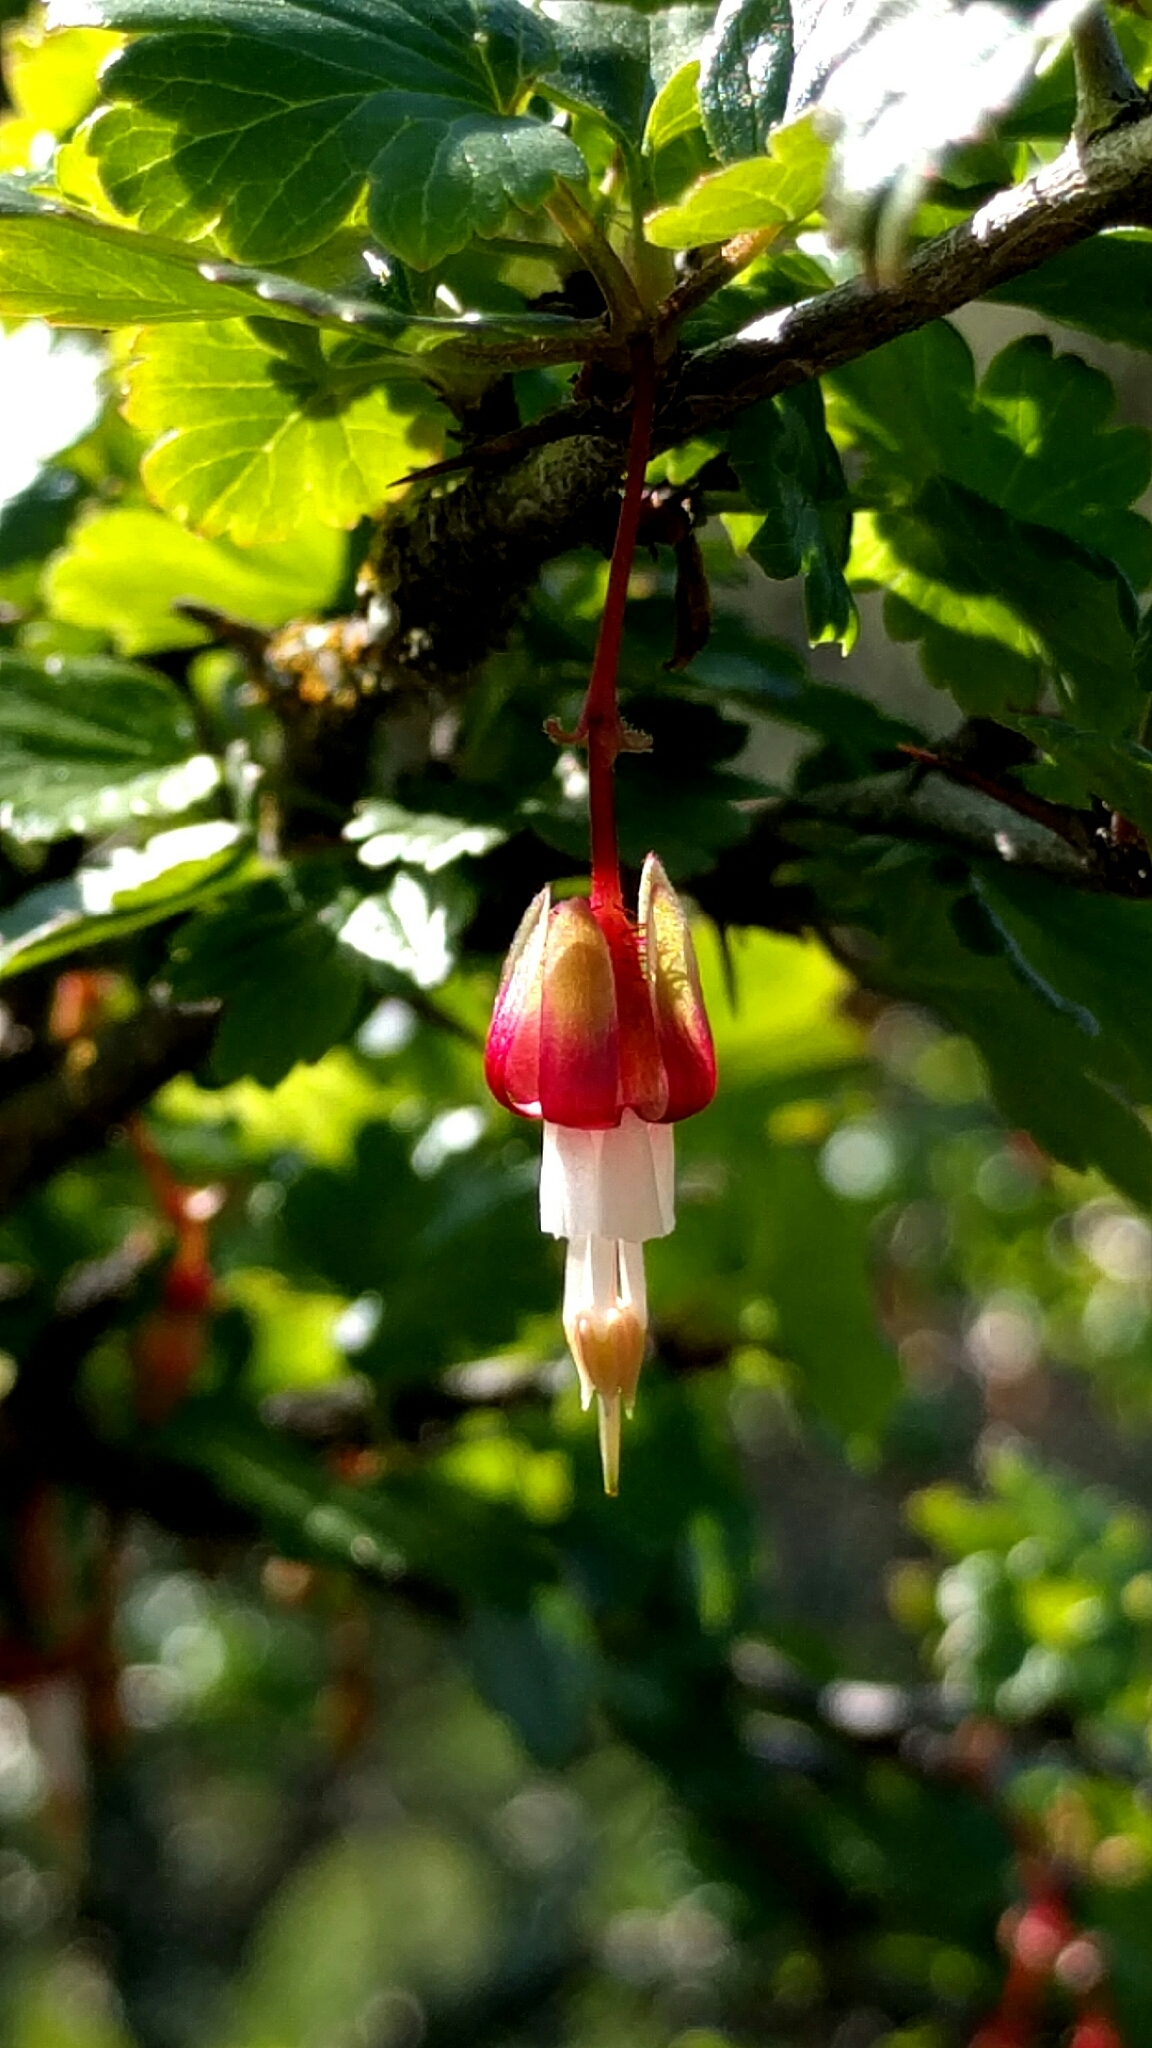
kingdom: Plantae
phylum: Tracheophyta
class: Magnoliopsida
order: Saxifragales
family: Grossulariaceae
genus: Ribes
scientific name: Ribes californicum
